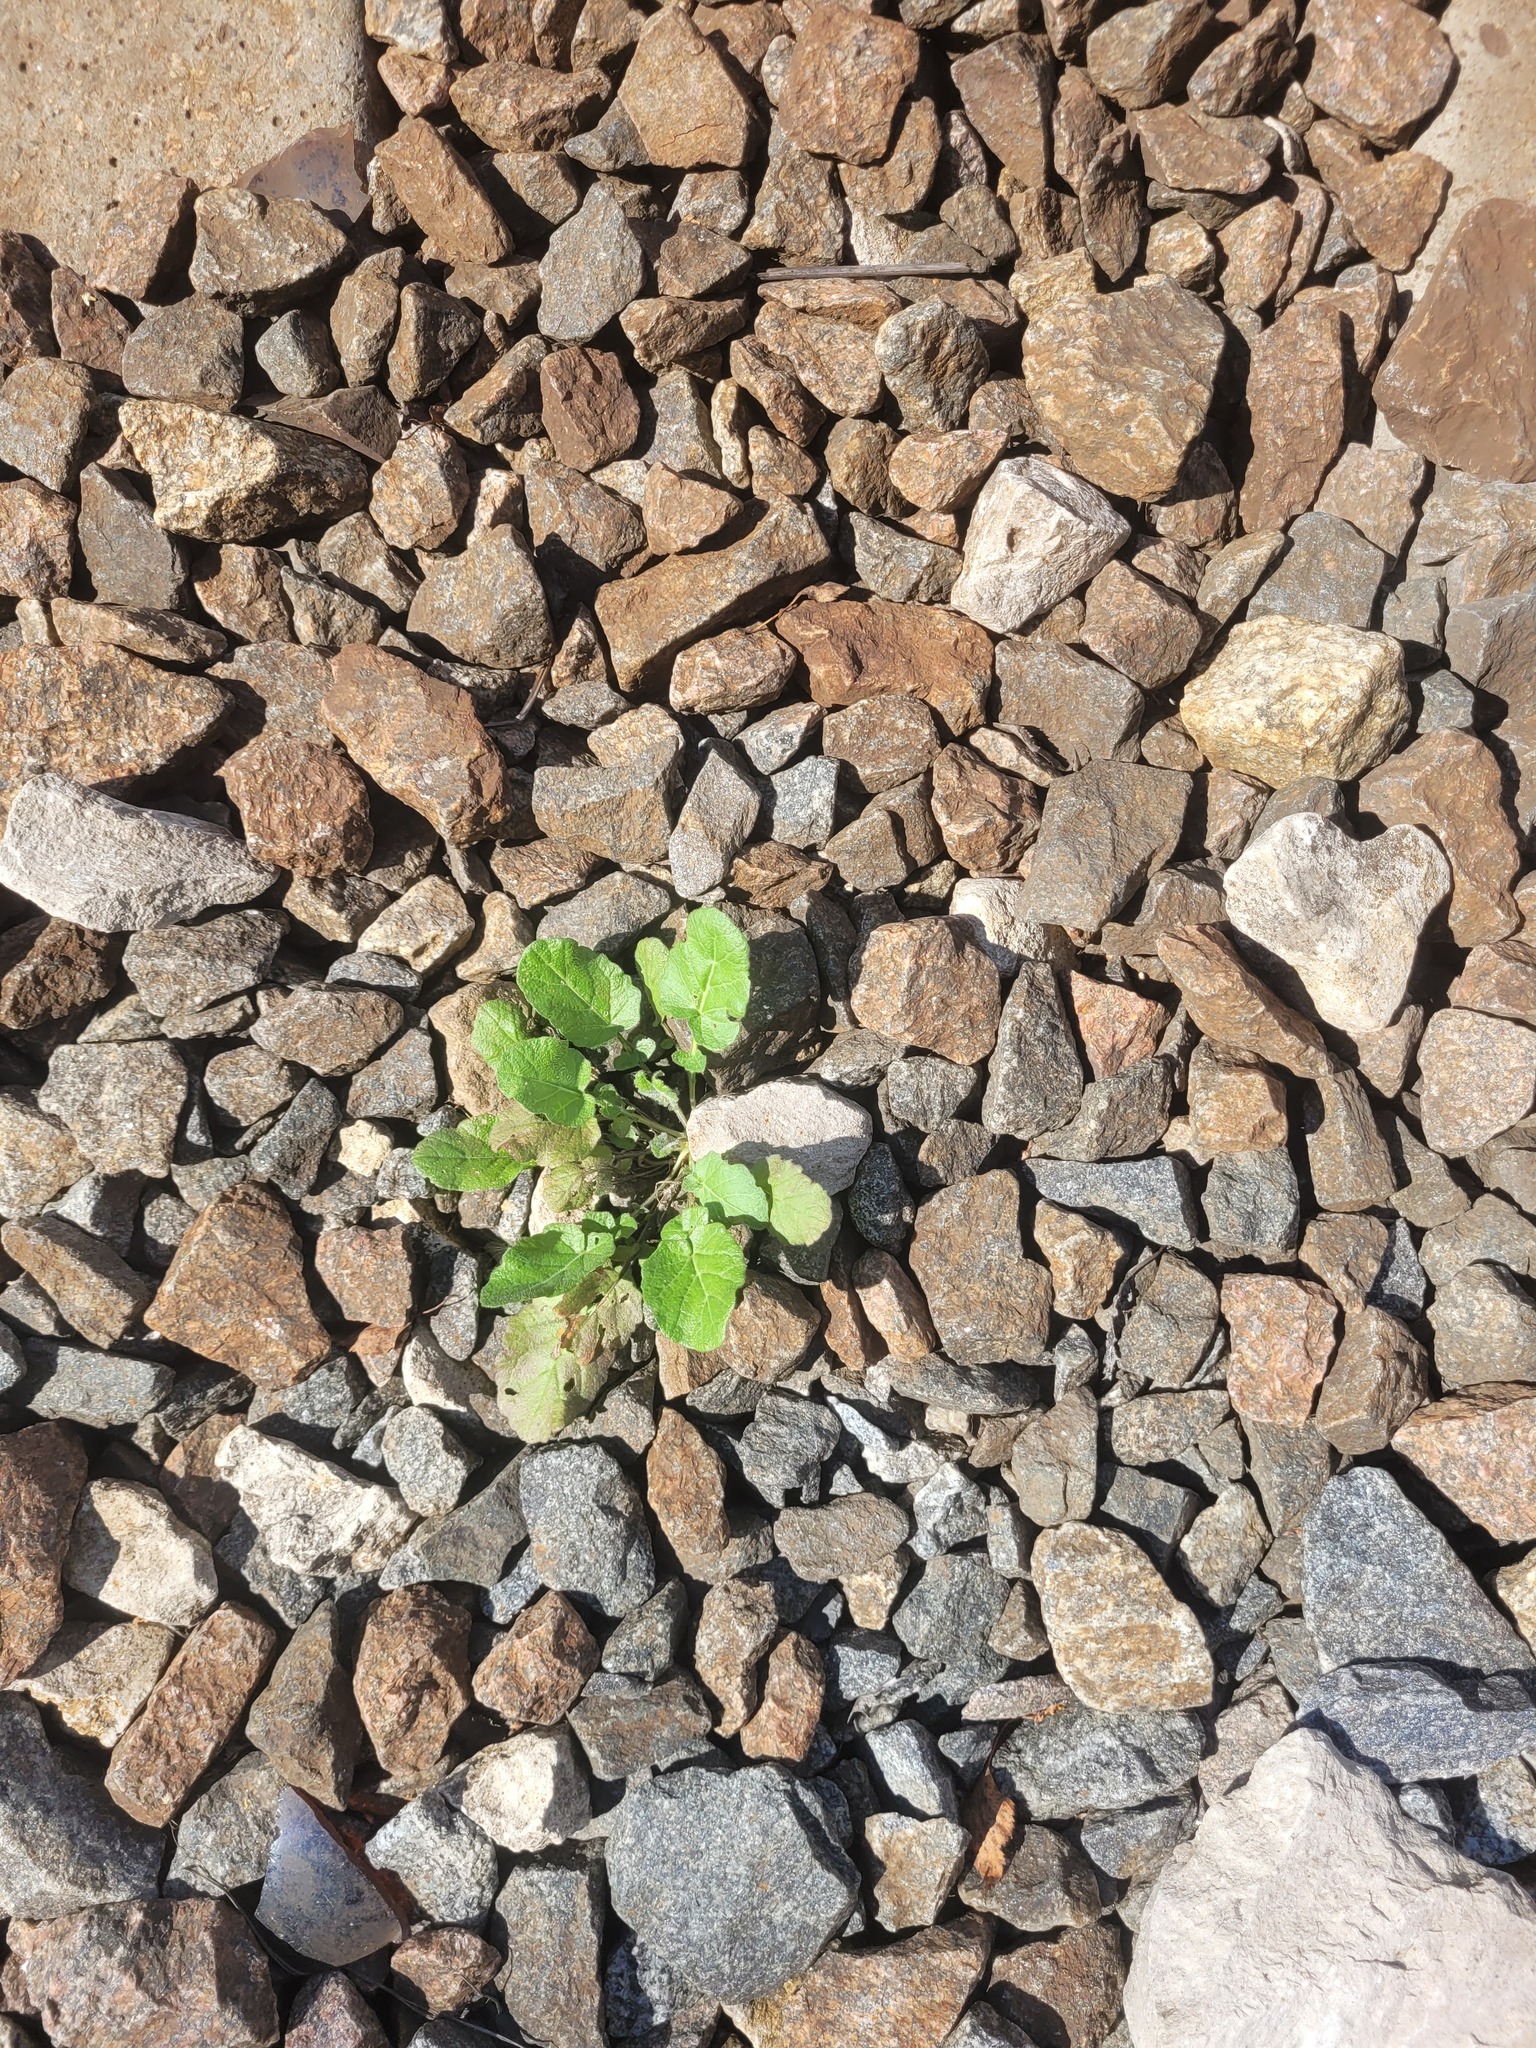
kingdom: Plantae
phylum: Tracheophyta
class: Magnoliopsida
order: Brassicales
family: Brassicaceae
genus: Barbarea
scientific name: Barbarea vulgaris
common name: Cressy-greens
